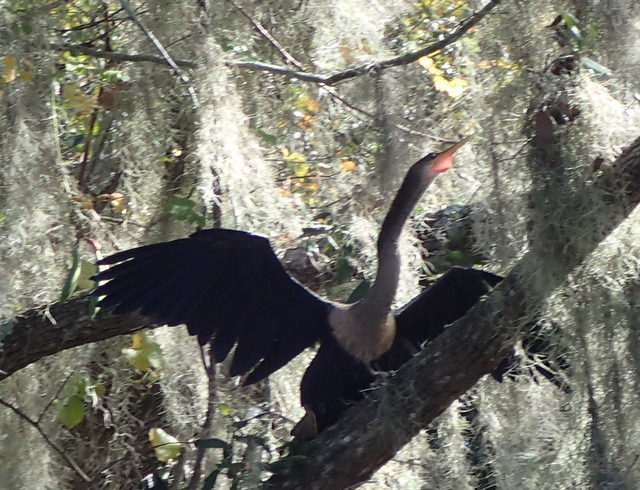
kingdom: Animalia
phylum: Chordata
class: Aves
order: Suliformes
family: Anhingidae
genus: Anhinga
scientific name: Anhinga anhinga
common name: Anhinga
